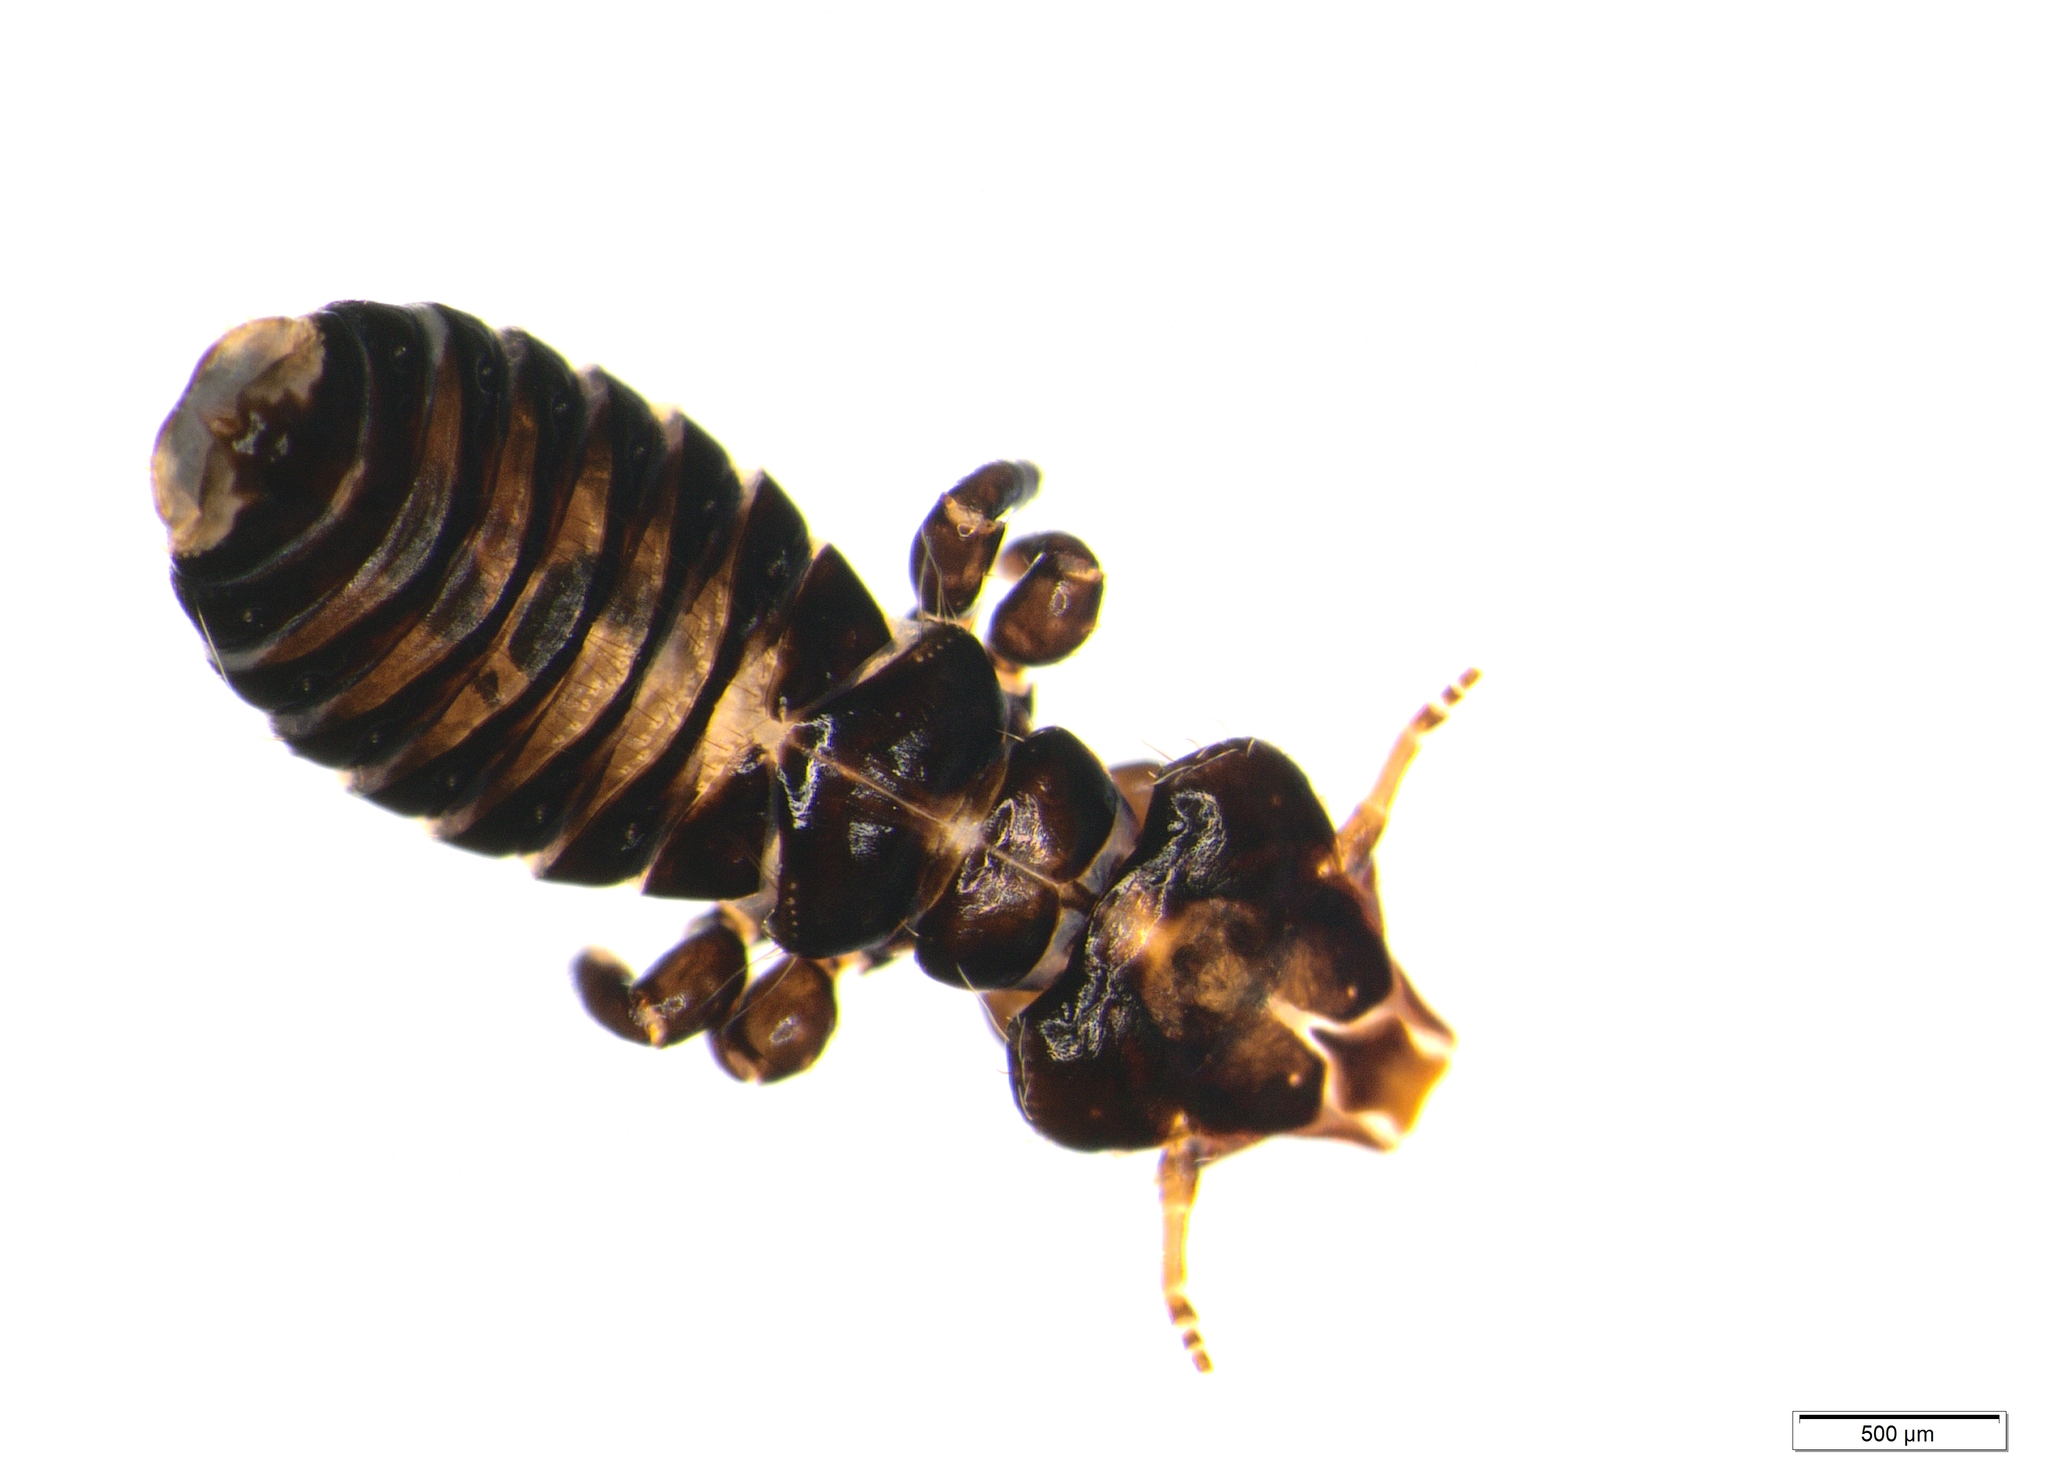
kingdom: Animalia
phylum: Arthropoda
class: Insecta
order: Psocodea
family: Philopteridae
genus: Docophoroides
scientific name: Docophoroides murphyi
